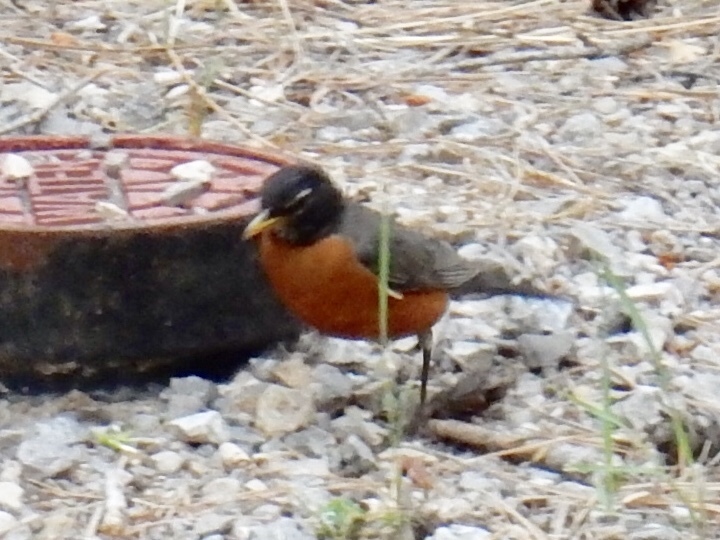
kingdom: Animalia
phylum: Chordata
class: Aves
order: Passeriformes
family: Turdidae
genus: Turdus
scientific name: Turdus migratorius
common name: American robin
